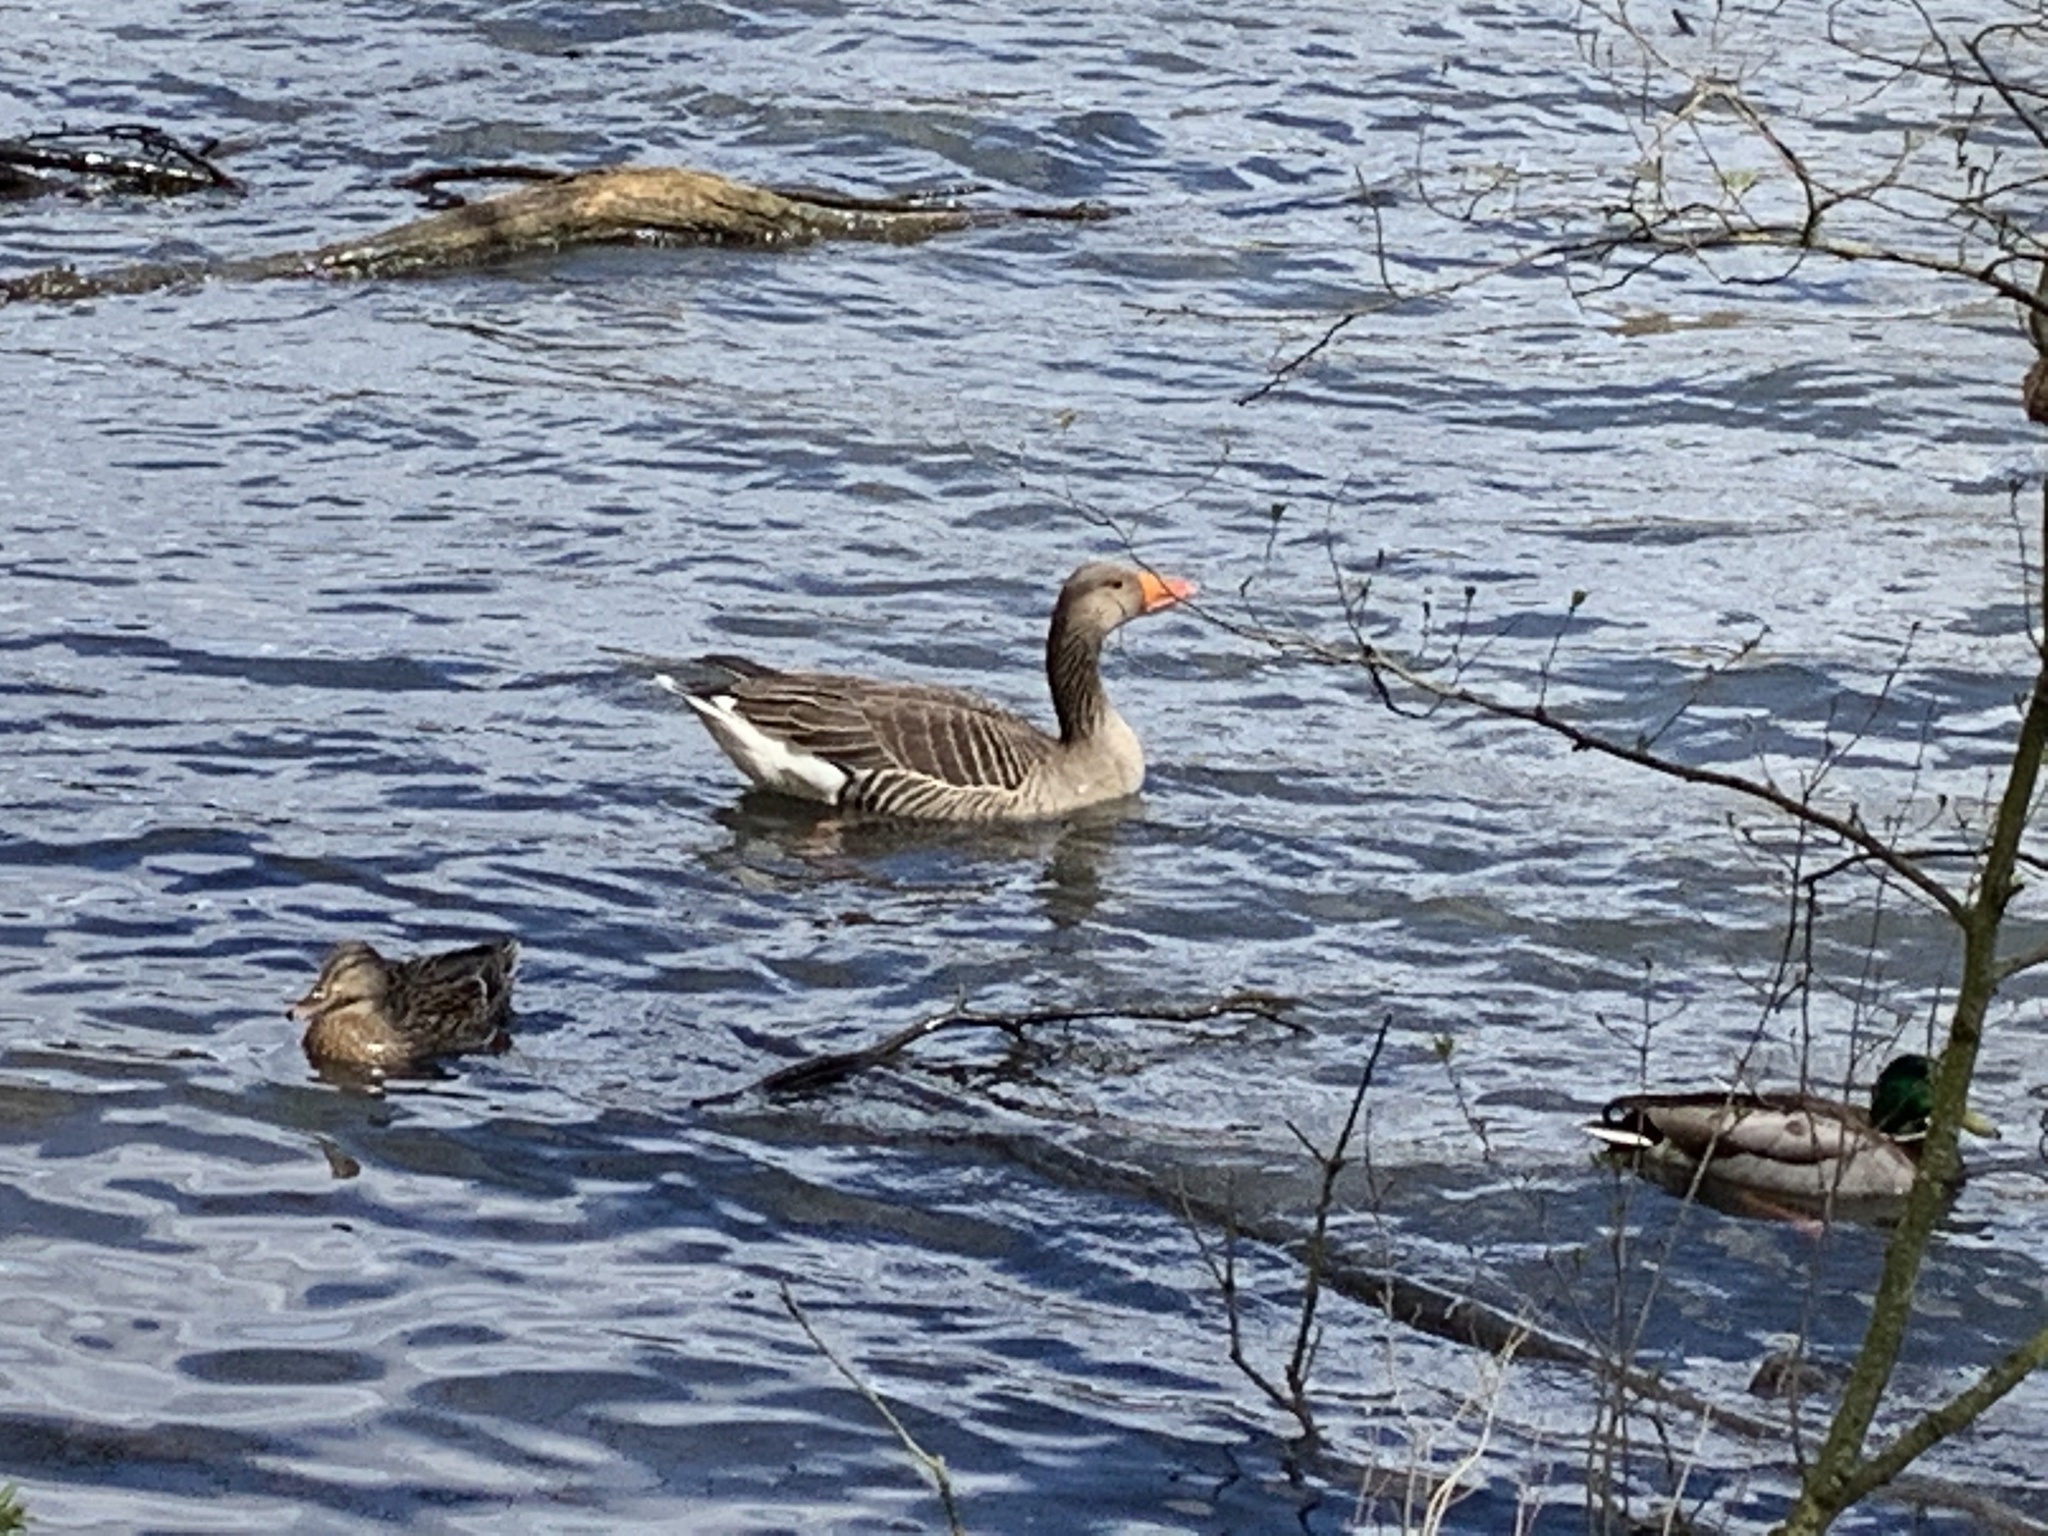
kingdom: Animalia
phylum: Chordata
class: Aves
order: Anseriformes
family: Anatidae
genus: Anser
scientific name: Anser anser
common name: Greylag goose
